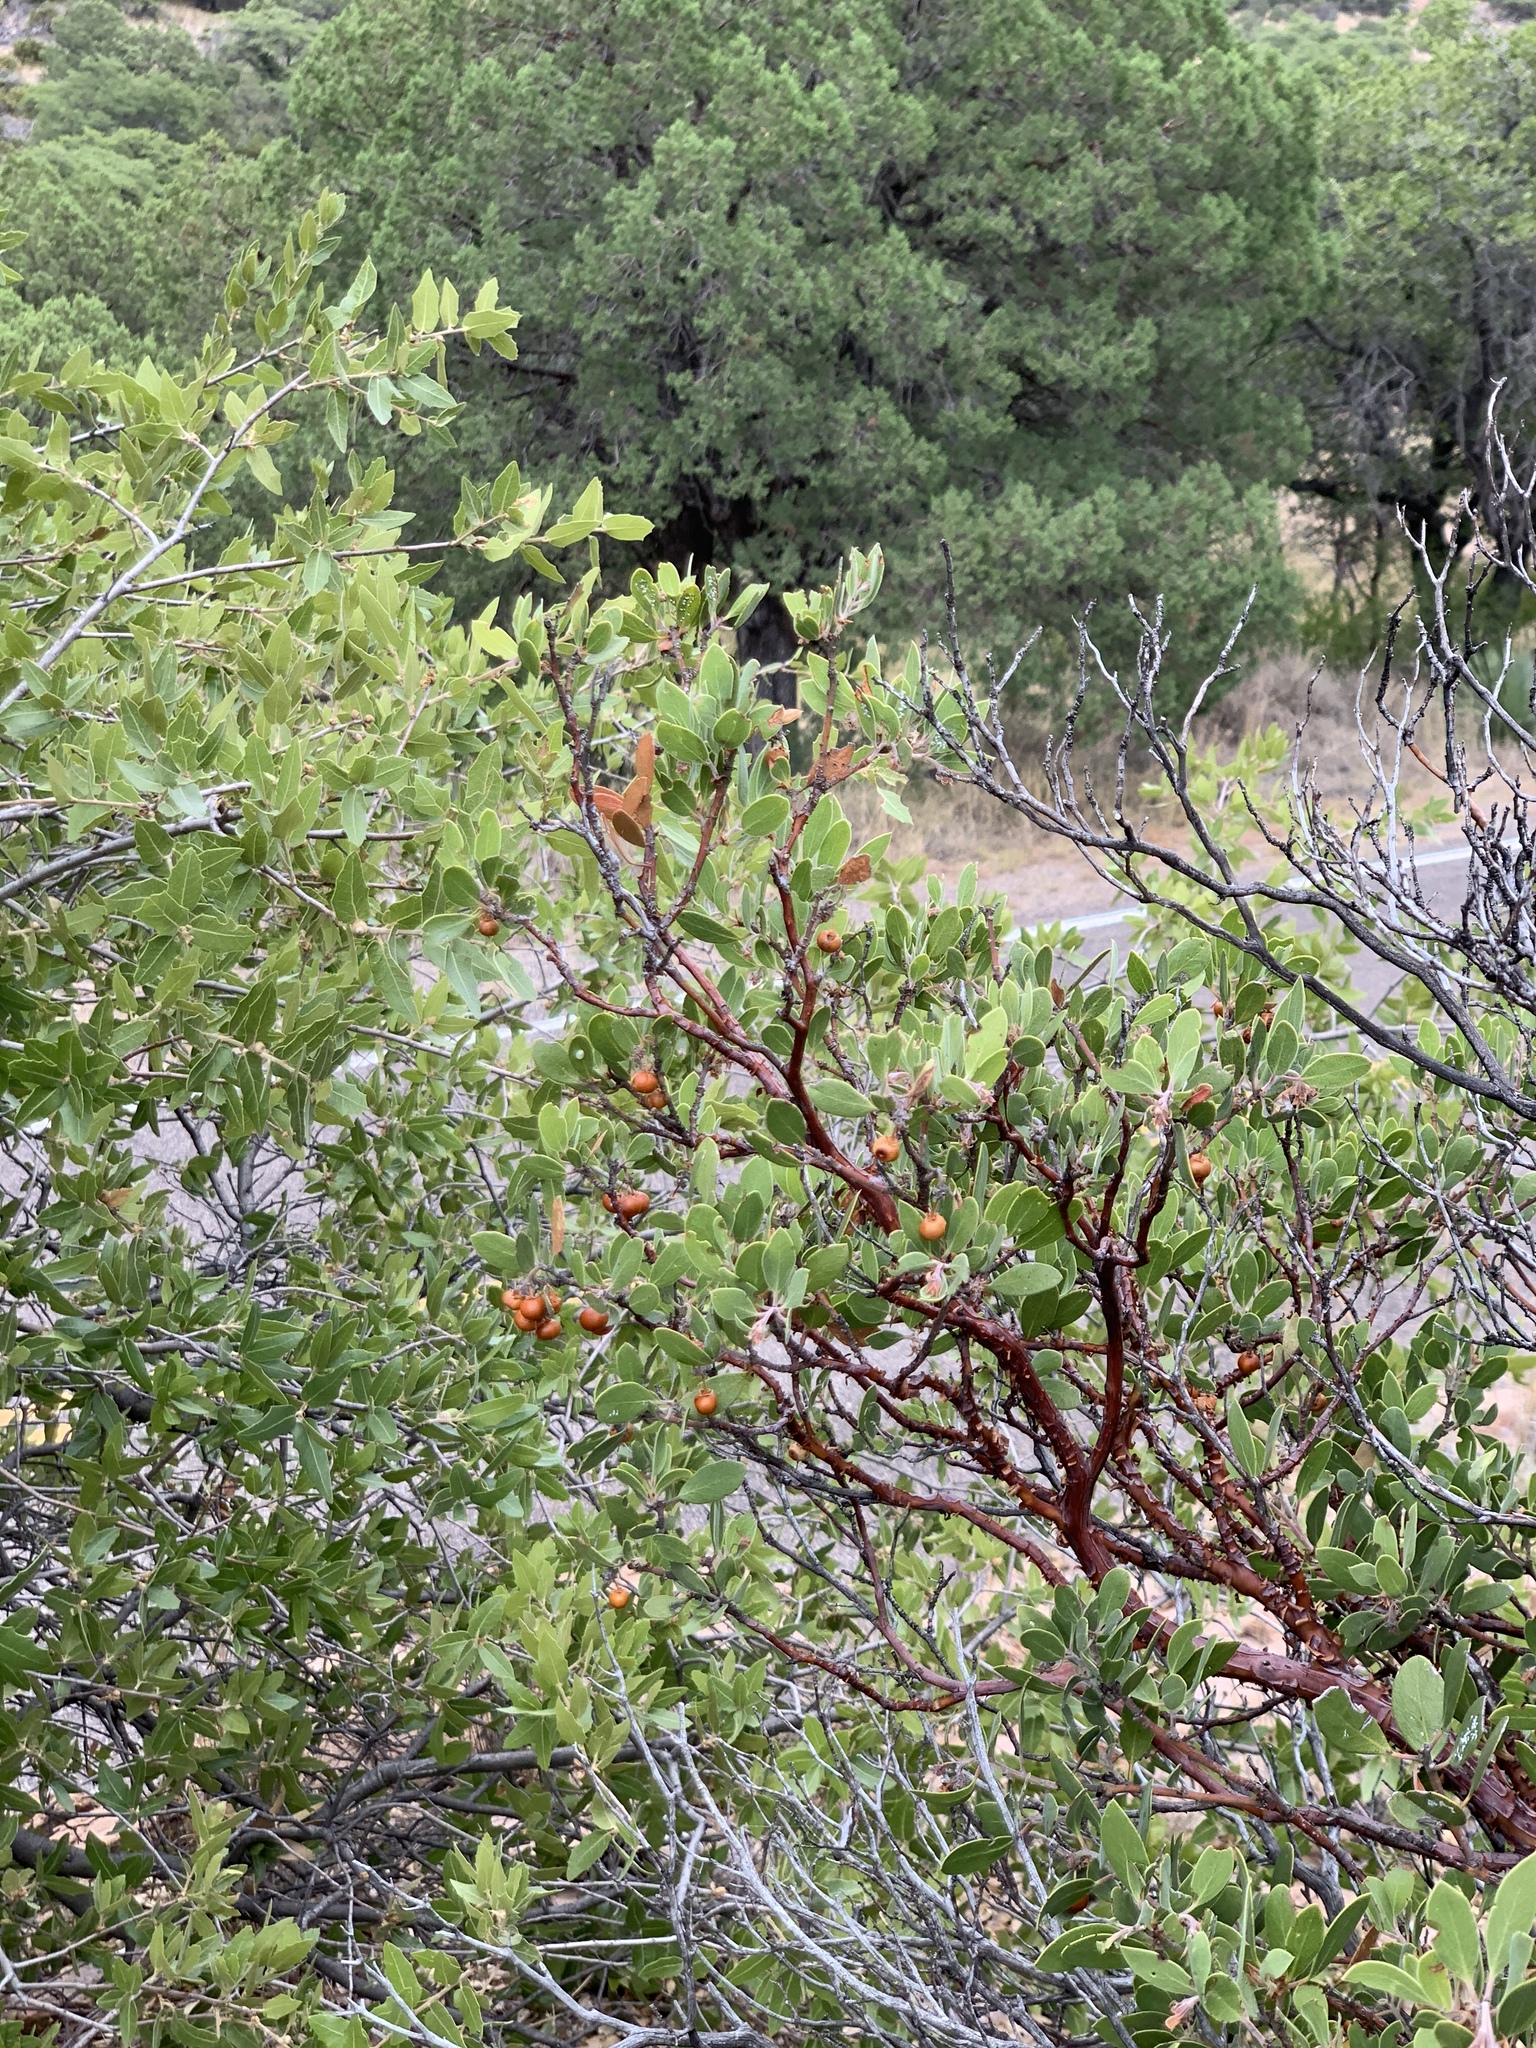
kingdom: Plantae
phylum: Tracheophyta
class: Magnoliopsida
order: Ericales
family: Ericaceae
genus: Arctostaphylos
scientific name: Arctostaphylos pungens
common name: Mexican manzanita
